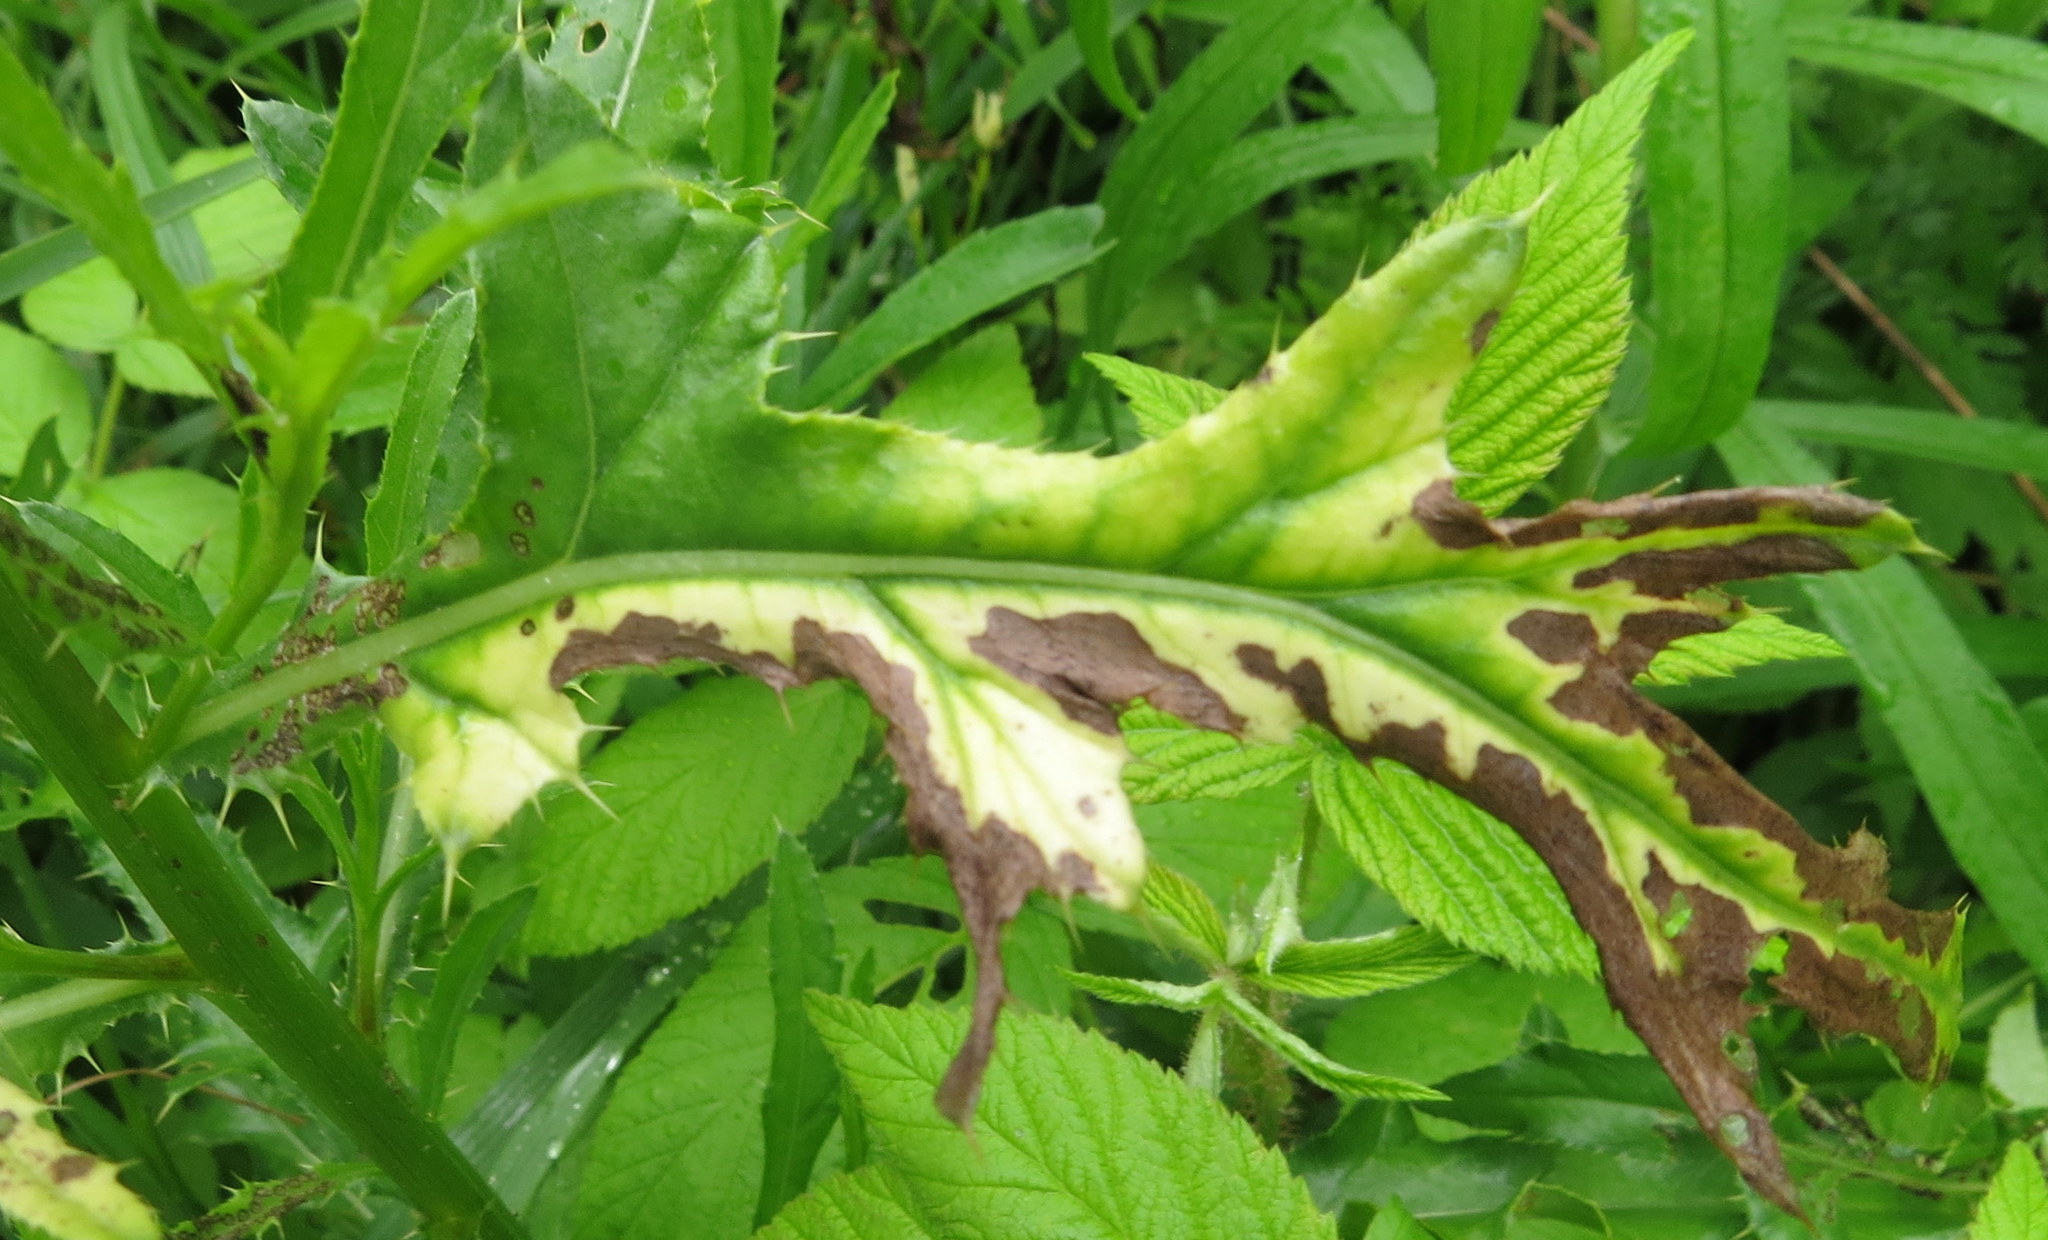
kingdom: Bacteria
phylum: Proteobacteria
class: Gammaproteobacteria
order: Pseudomonadales
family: Pseudomonadaceae
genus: Pseudomonas
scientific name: Pseudomonas syringae
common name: Bacterial speck
